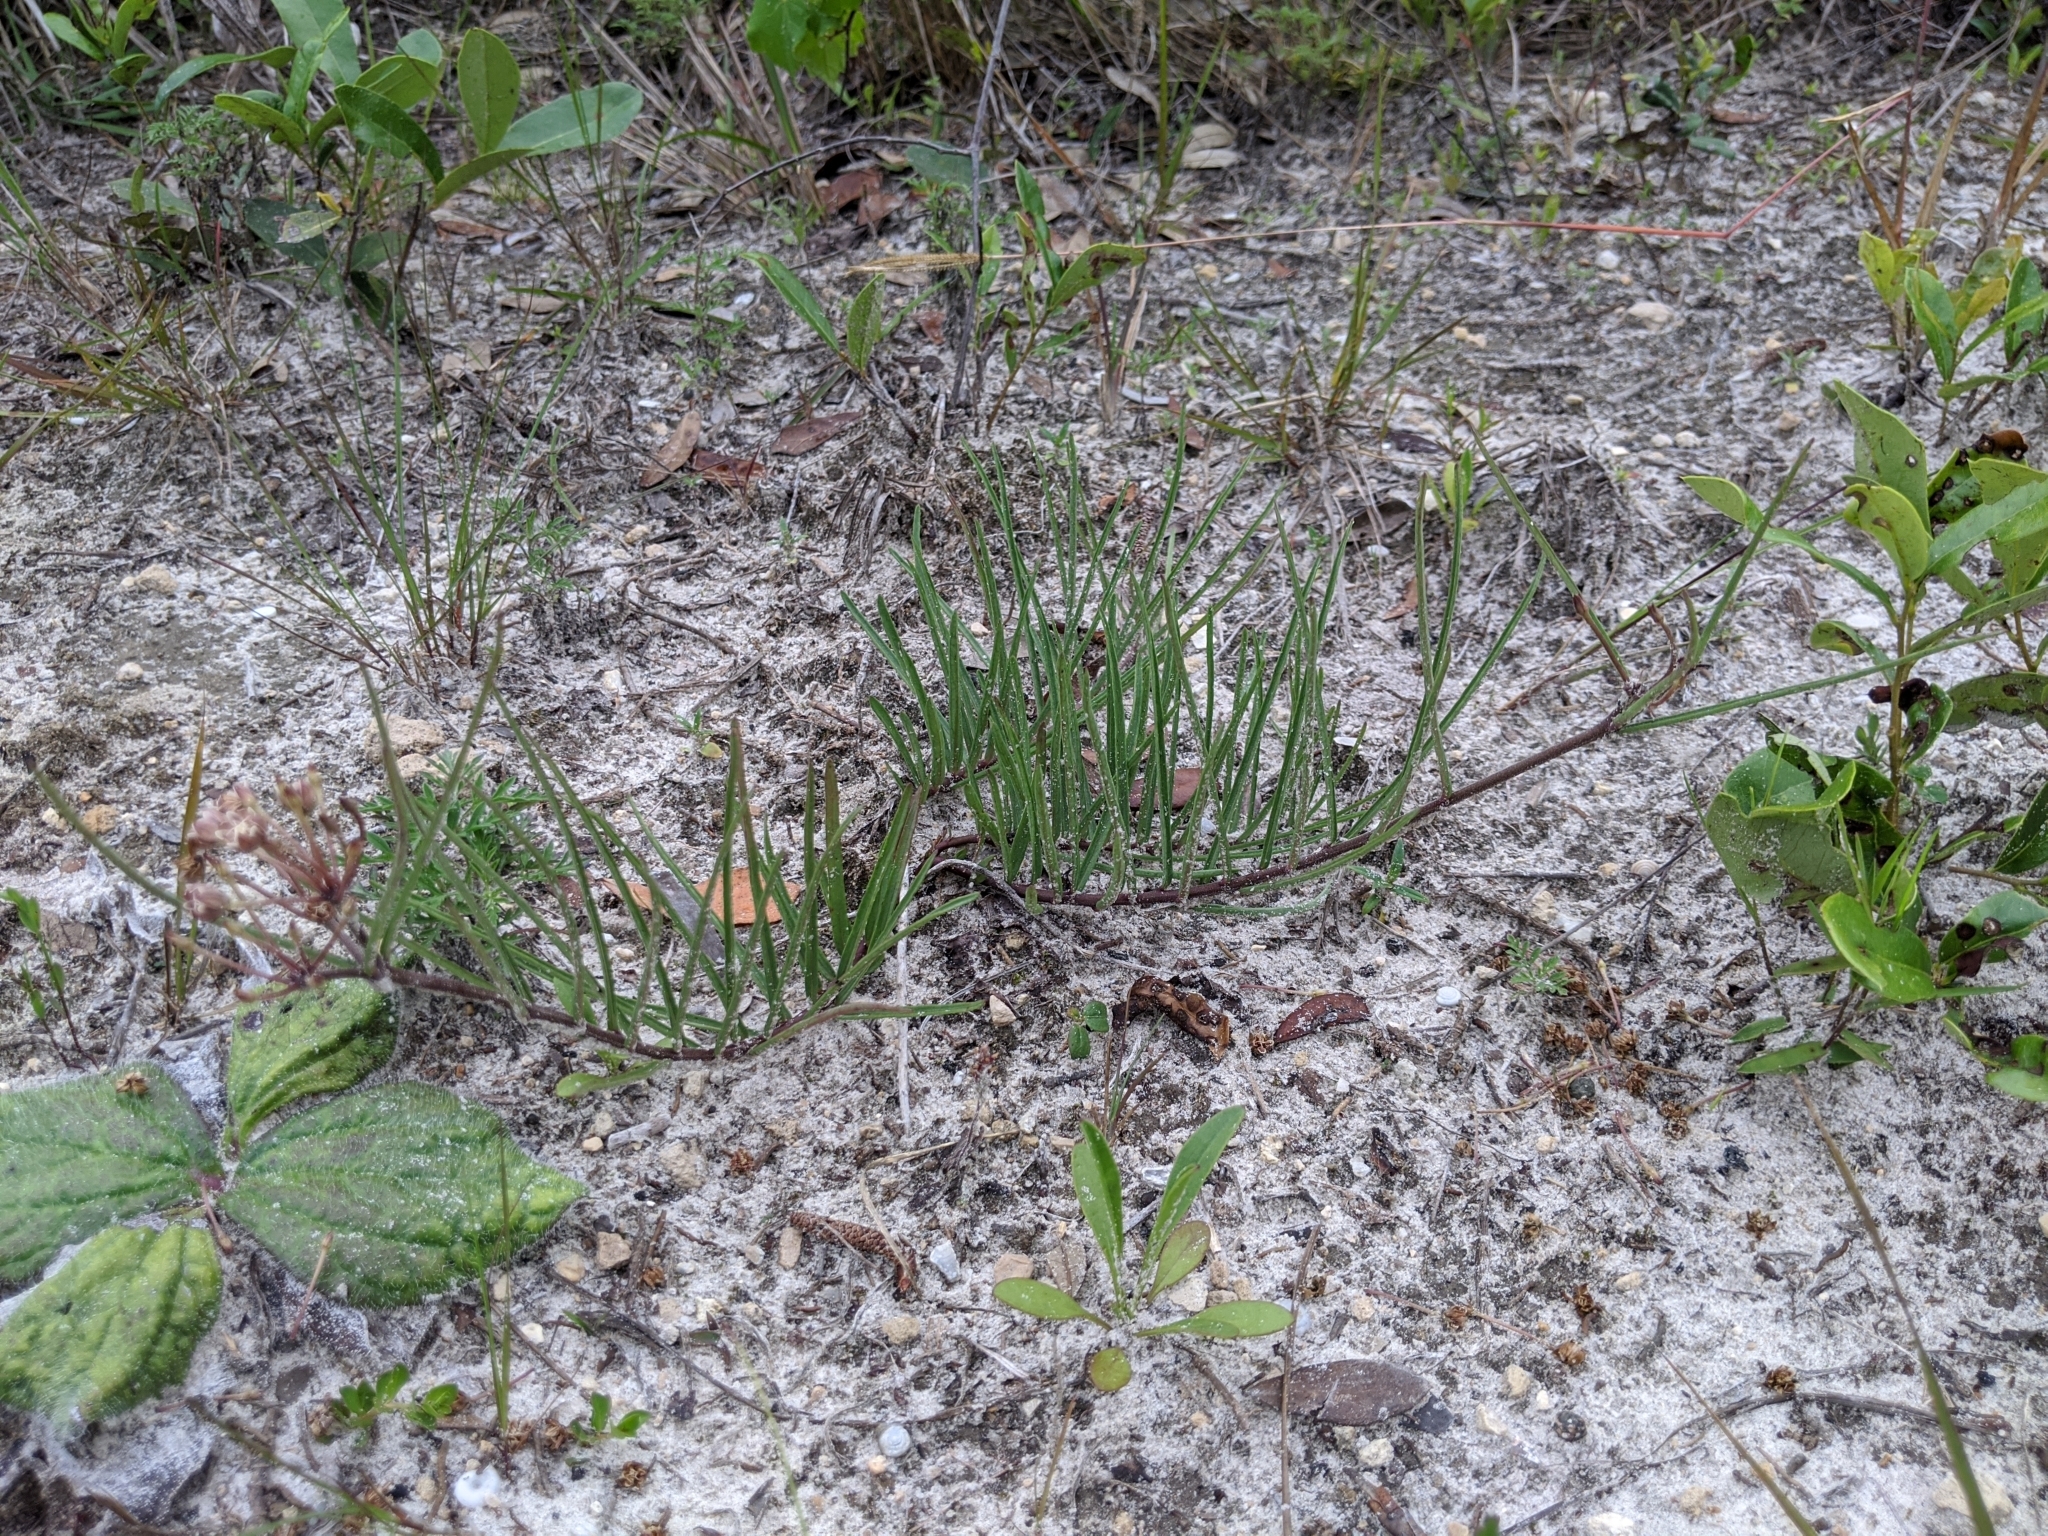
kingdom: Plantae
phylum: Tracheophyta
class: Magnoliopsida
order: Gentianales
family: Apocynaceae
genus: Asclepias
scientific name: Asclepias michauxii
